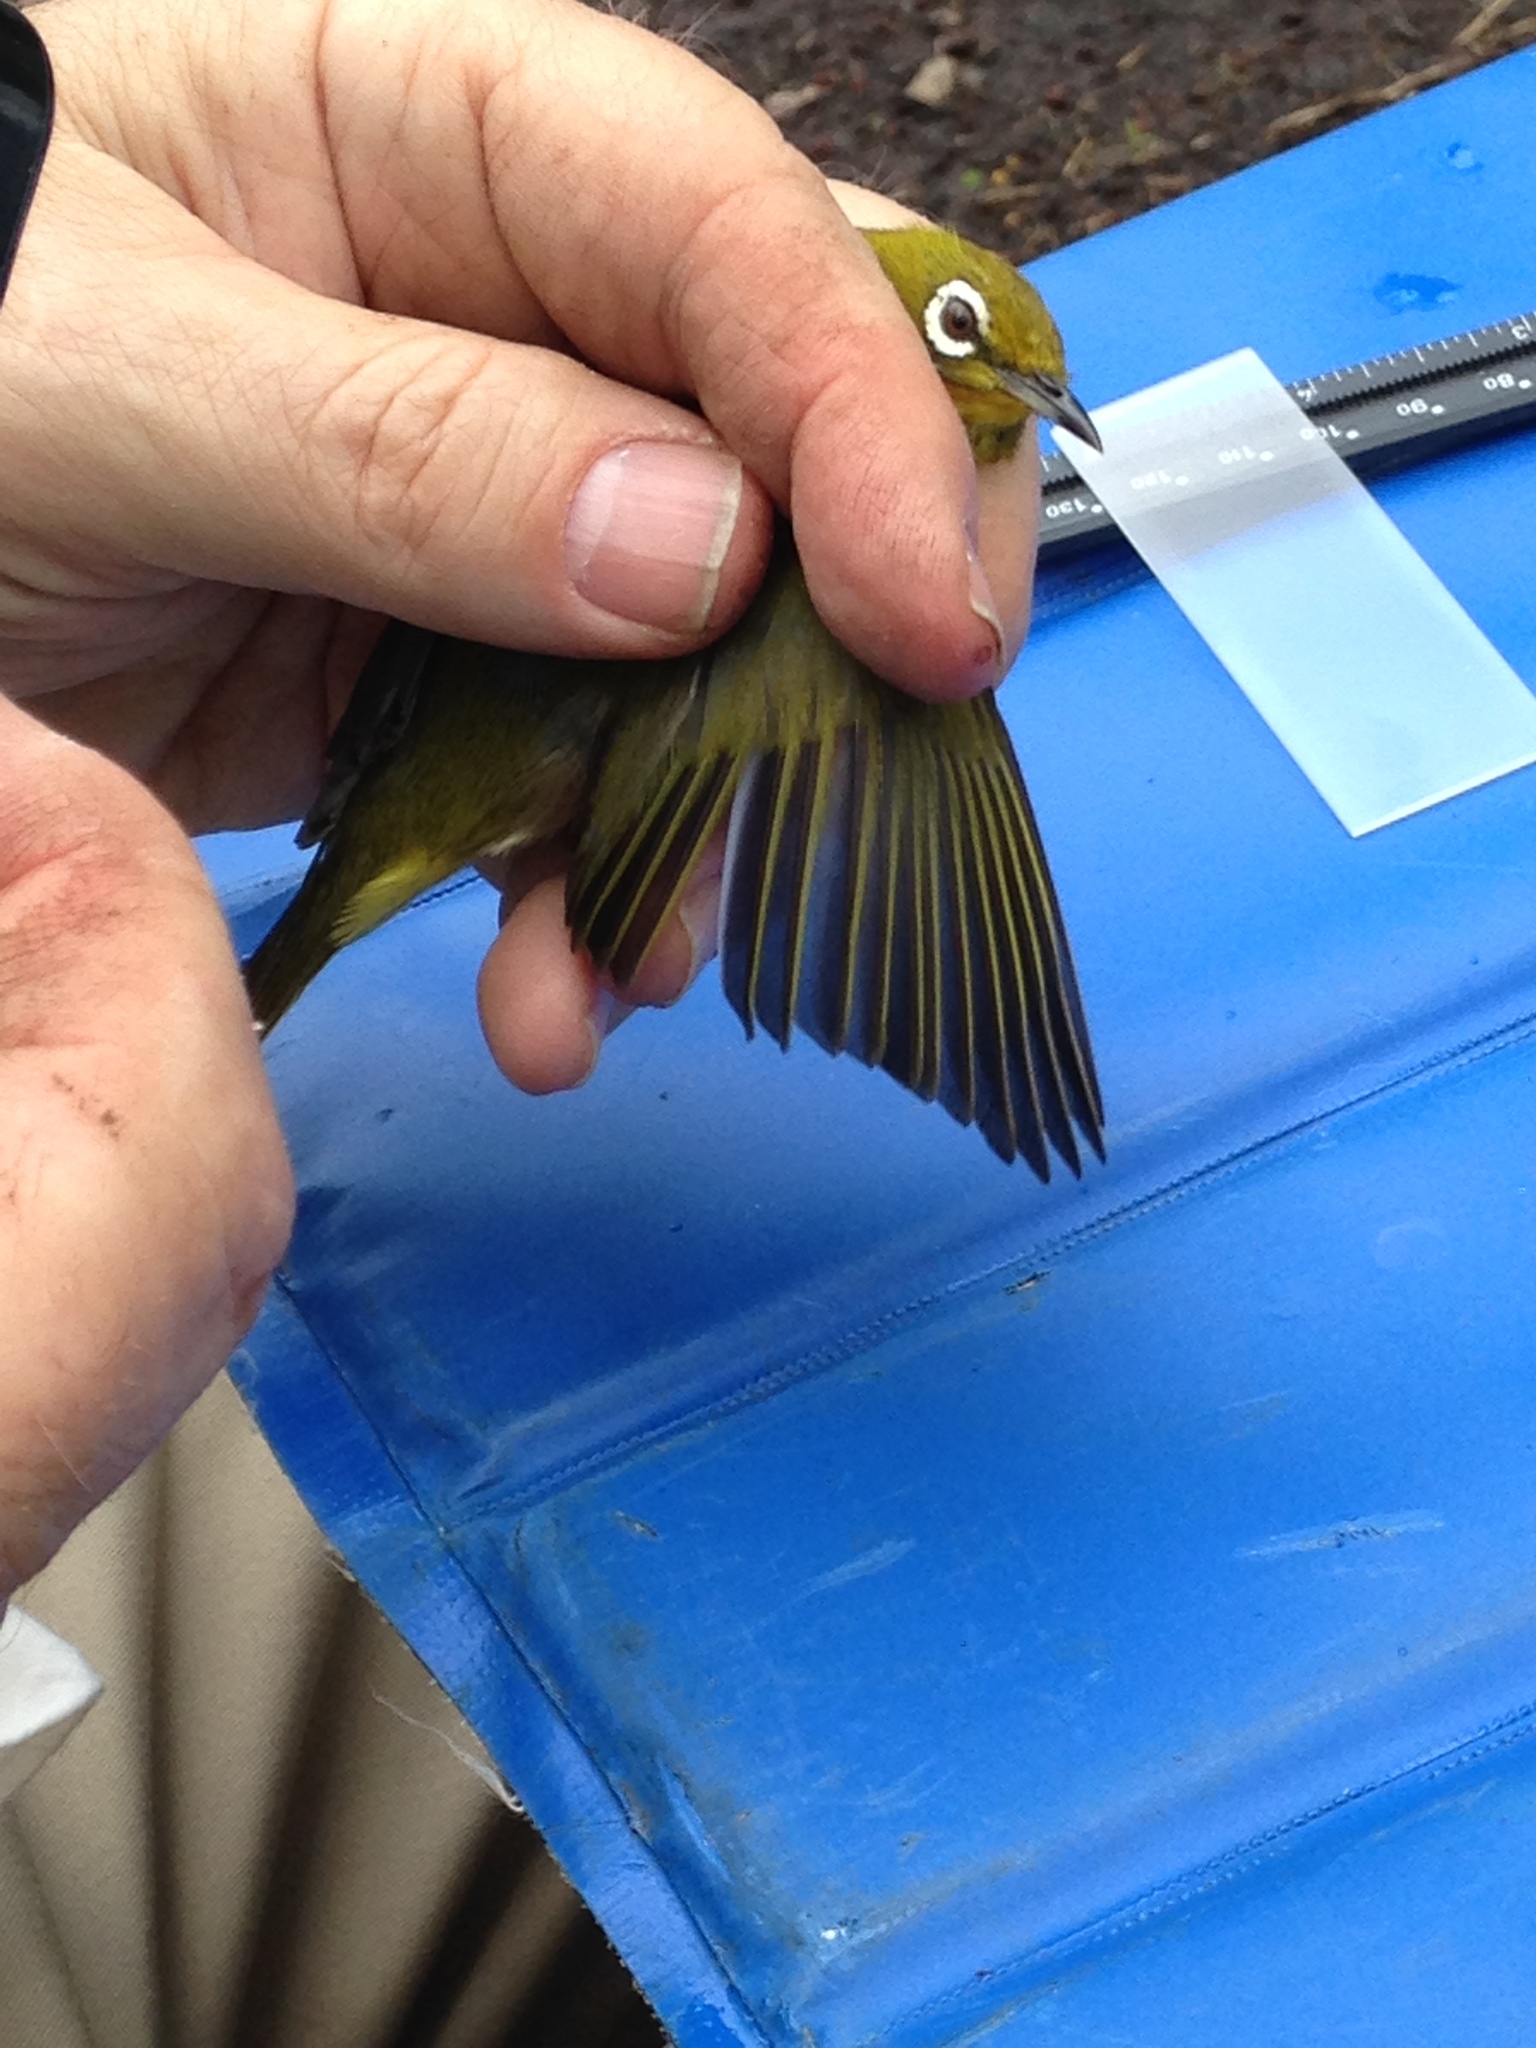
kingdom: Animalia
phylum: Chordata
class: Aves
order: Passeriformes
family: Zosteropidae
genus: Zosterops
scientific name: Zosterops japonicus
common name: Japanese white-eye
